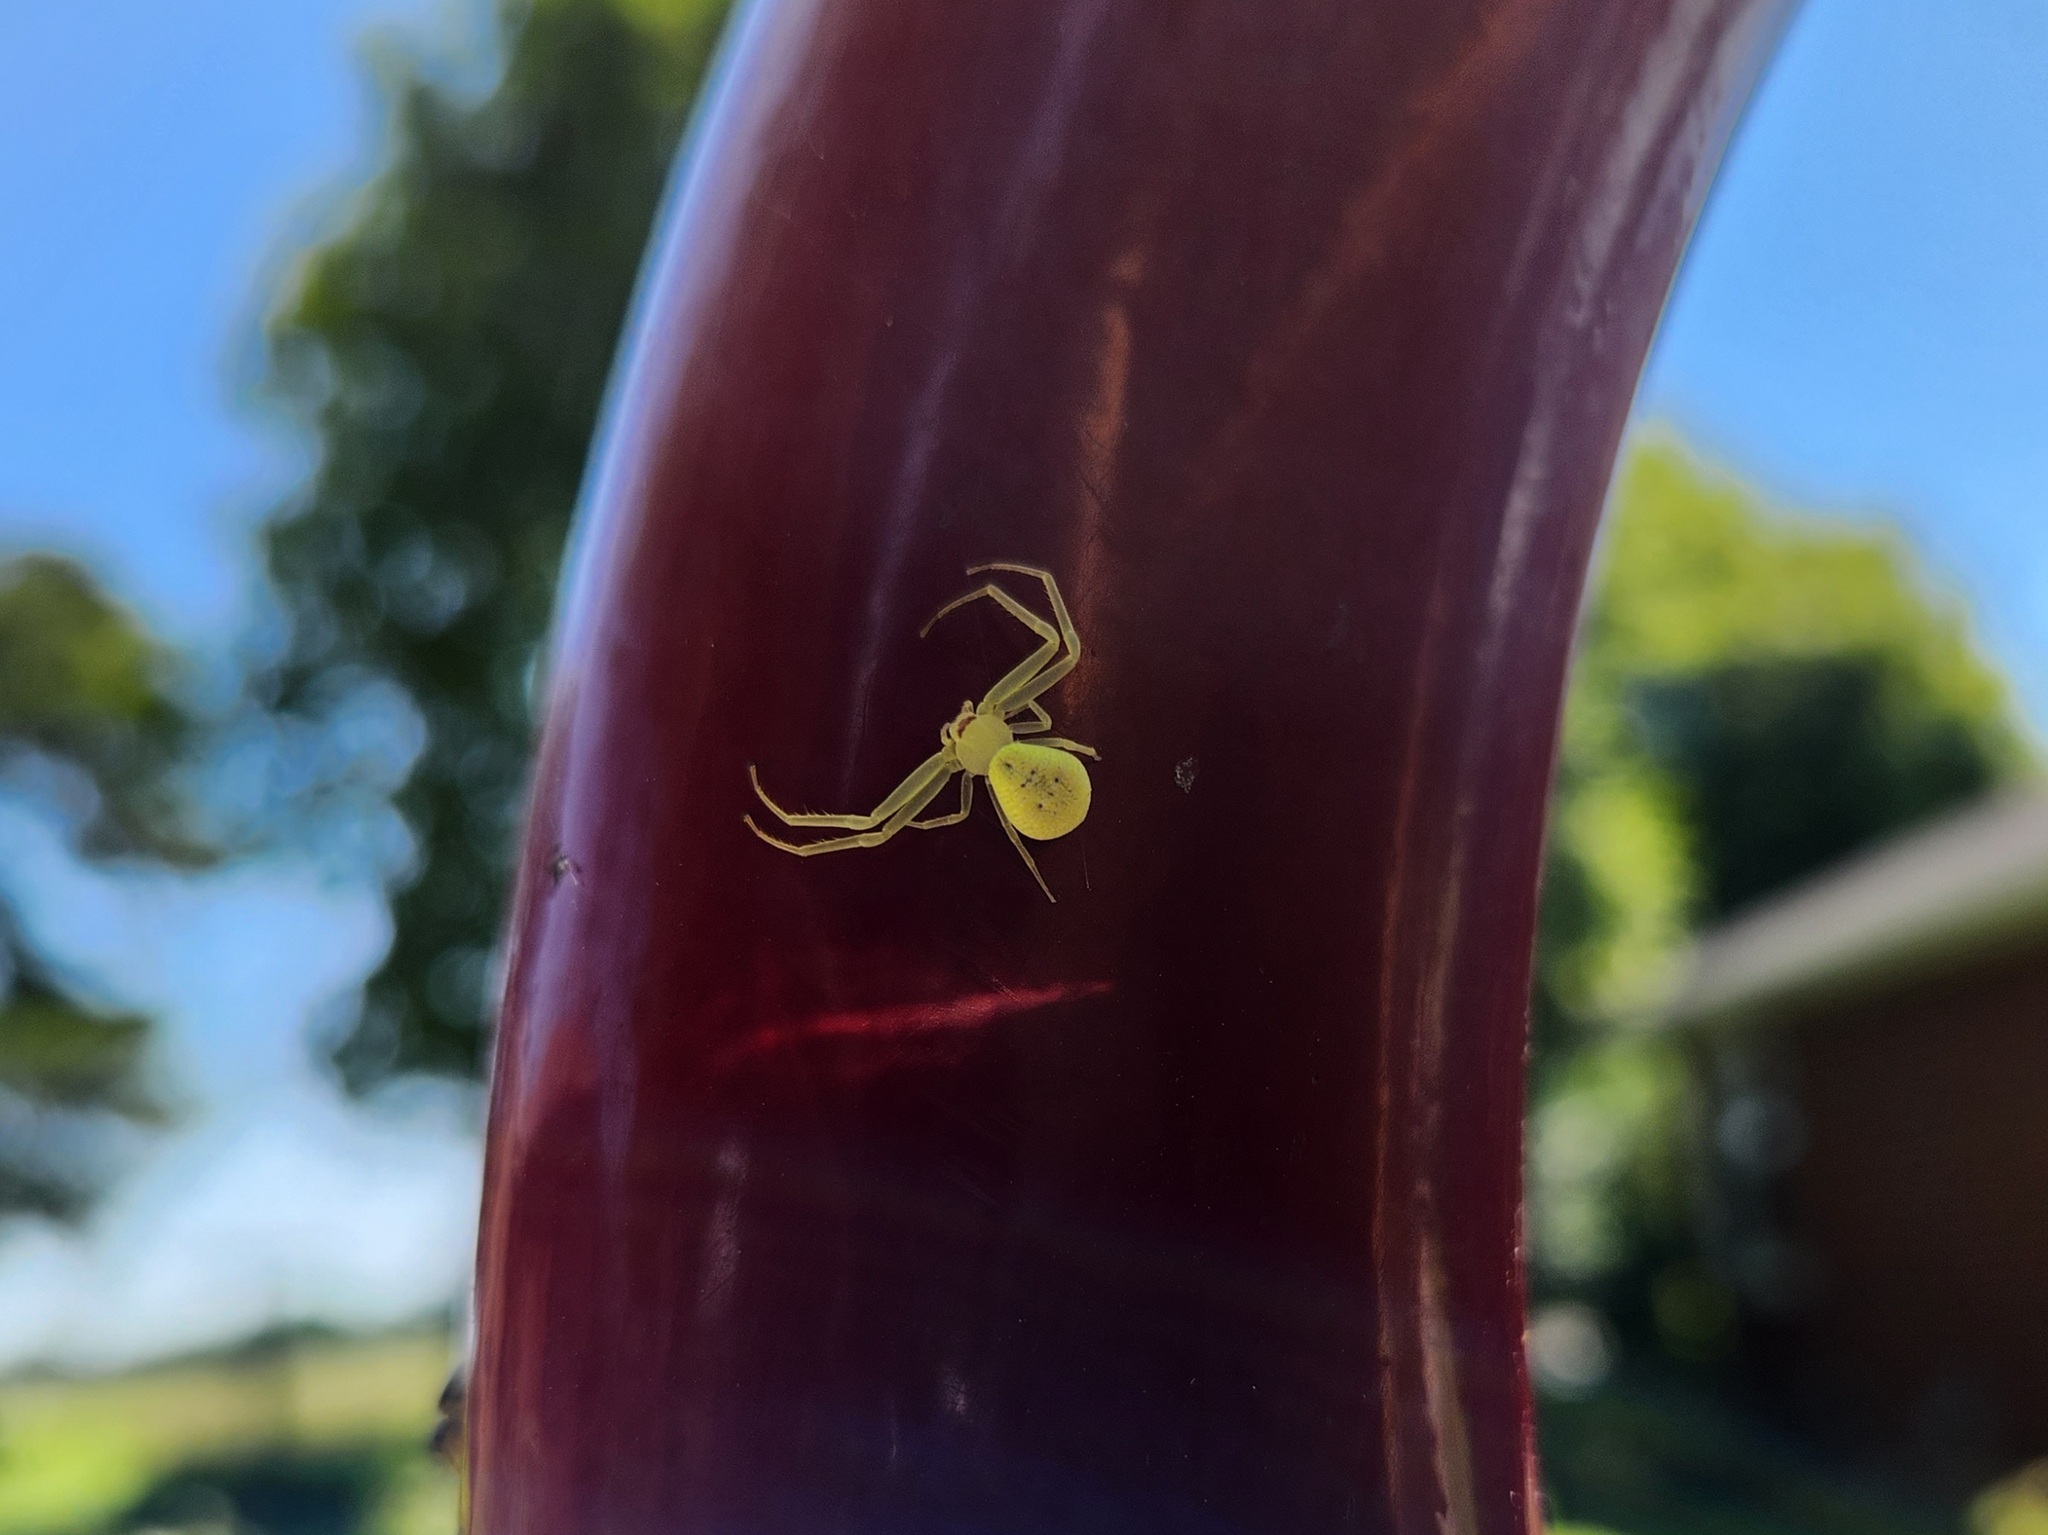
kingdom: Animalia
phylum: Arthropoda
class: Arachnida
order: Araneae
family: Thomisidae
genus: Misumessus
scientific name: Misumessus oblongus
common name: American green crab spider
